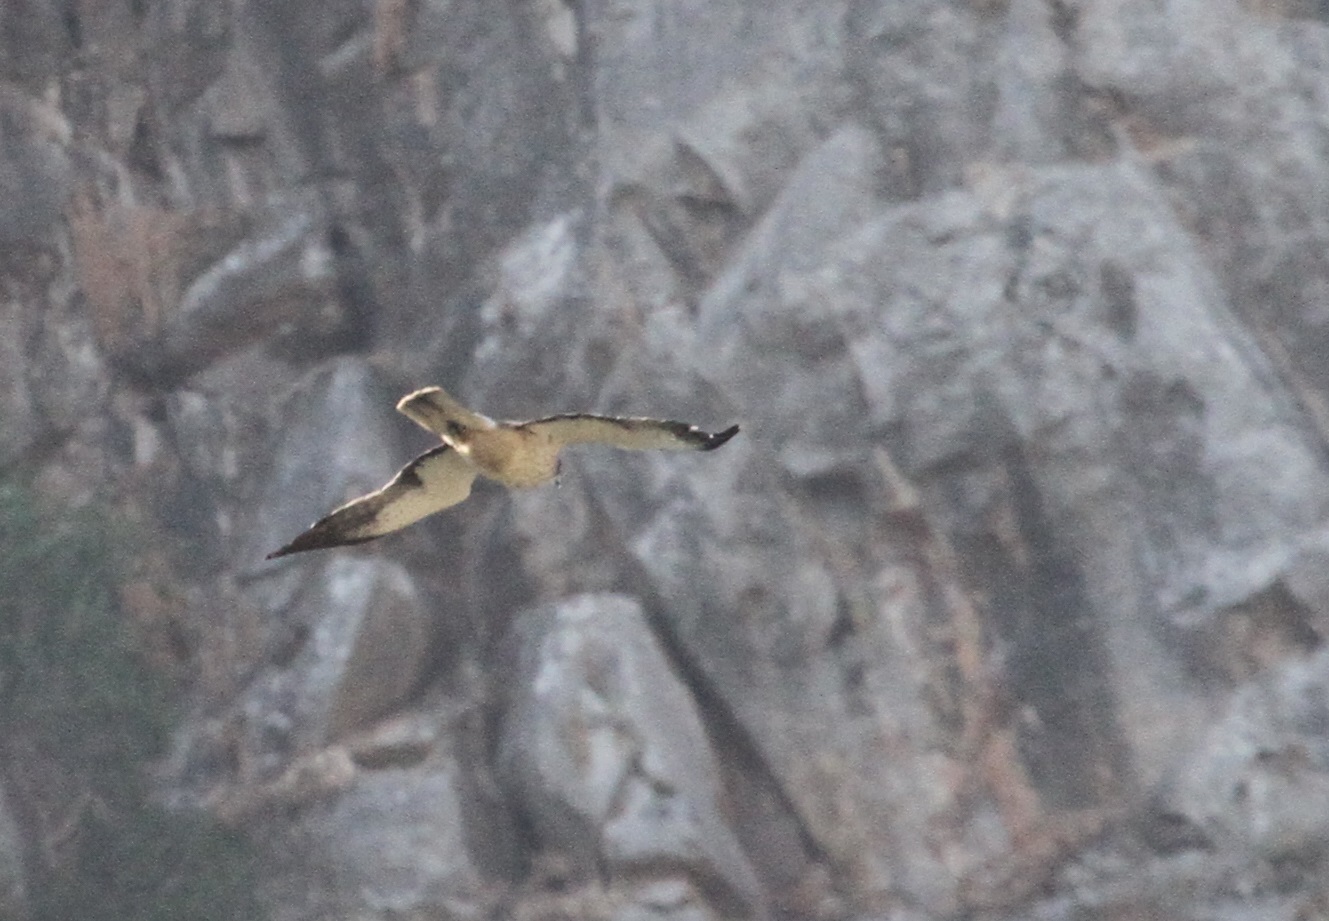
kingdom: Animalia
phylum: Chordata
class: Aves
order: Accipitriformes
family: Accipitridae
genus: Hieraaetus
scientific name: Hieraaetus pennatus
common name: Booted eagle
